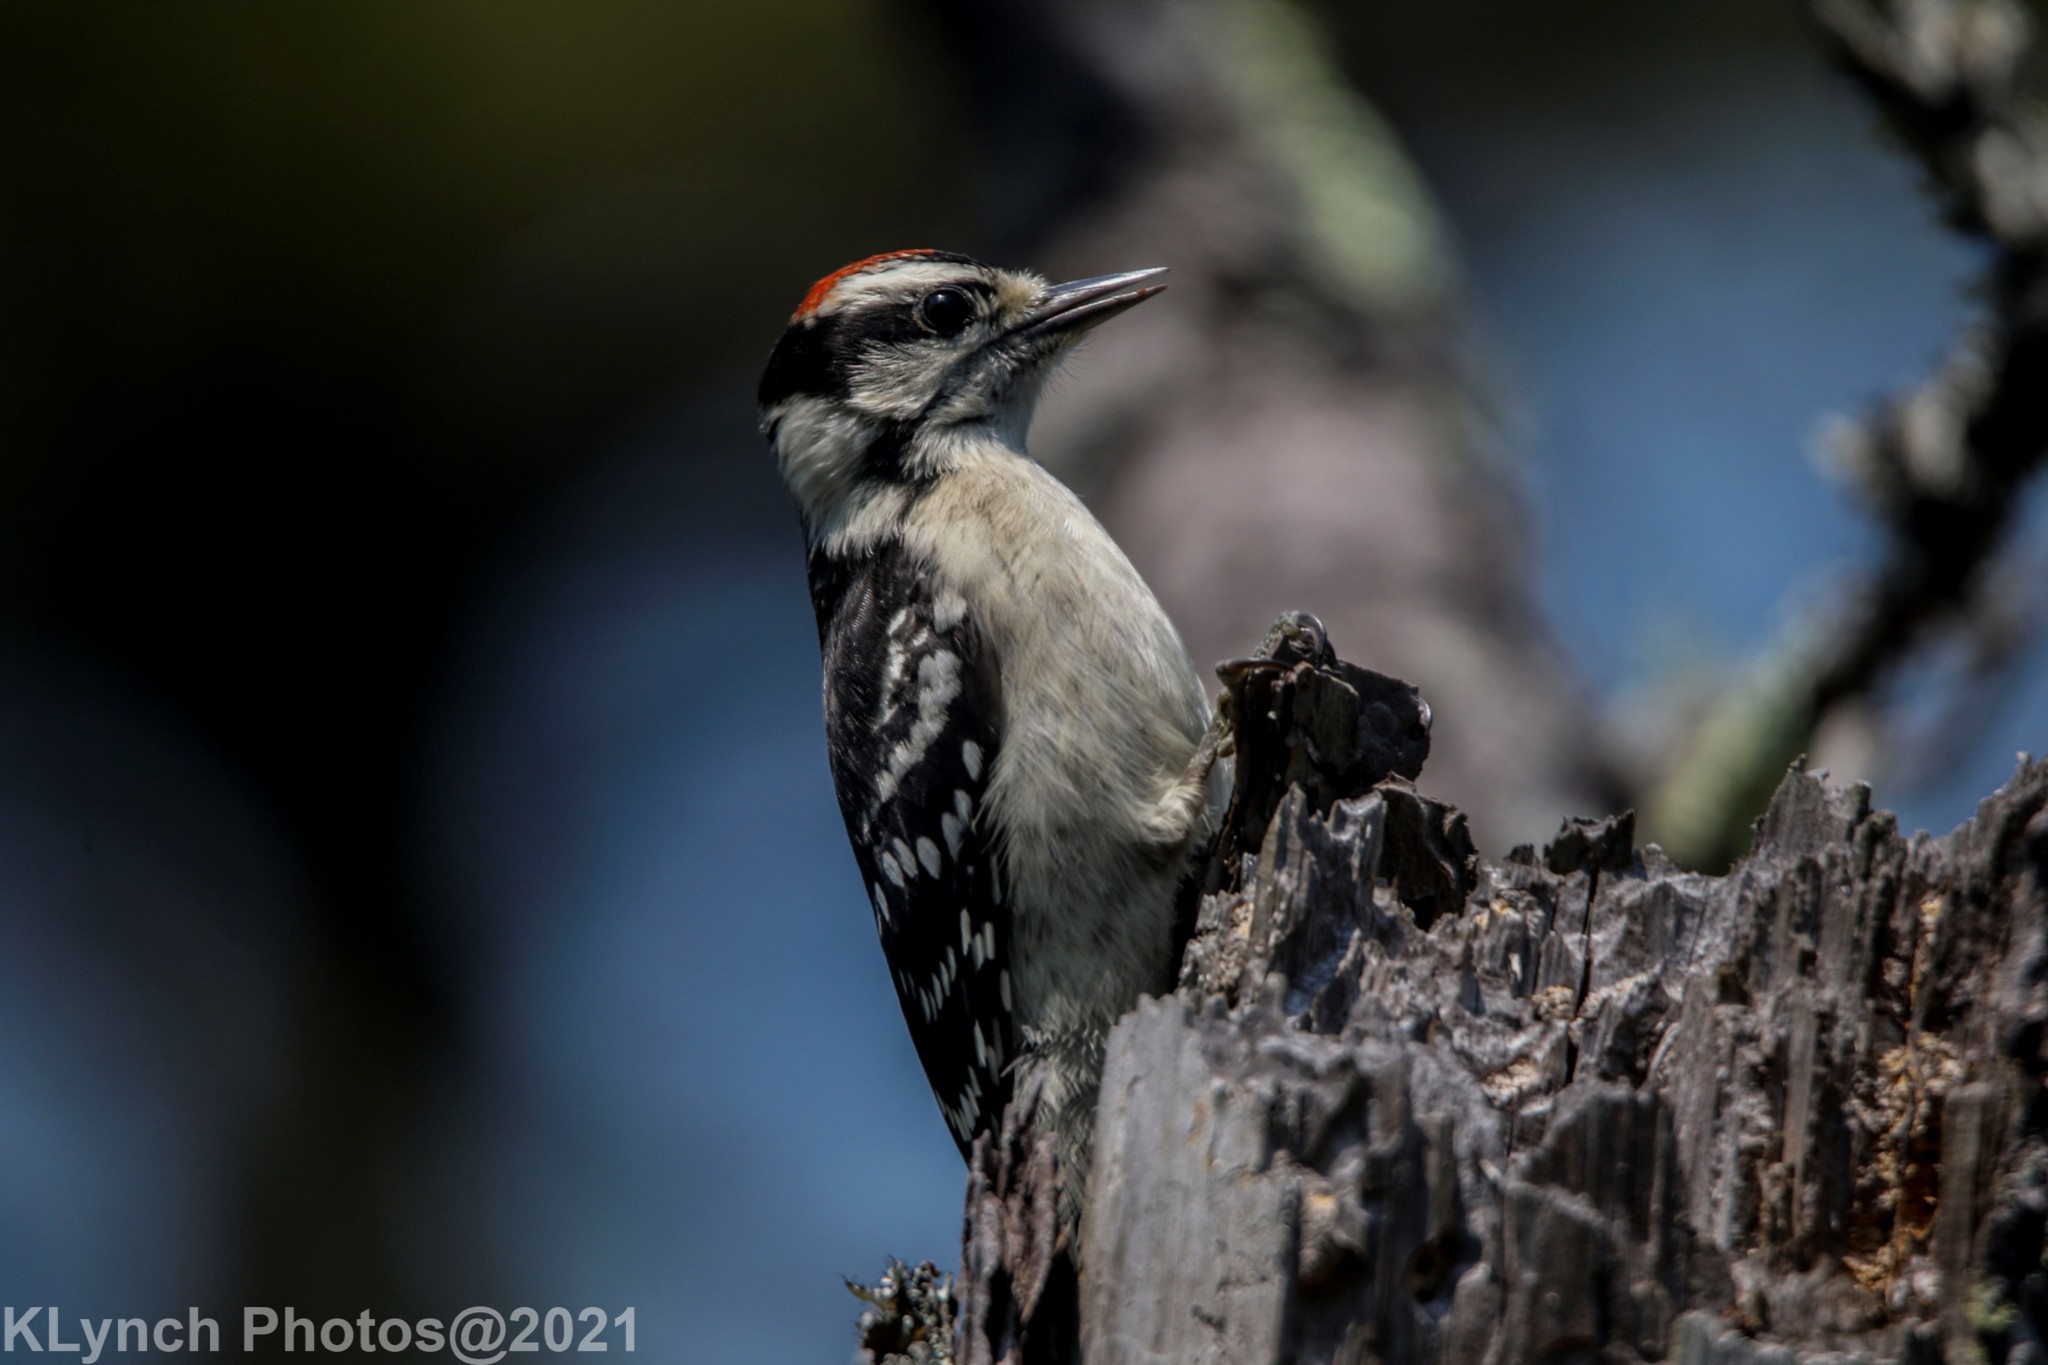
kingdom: Animalia
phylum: Chordata
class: Aves
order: Piciformes
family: Picidae
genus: Dryobates
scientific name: Dryobates pubescens
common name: Downy woodpecker
